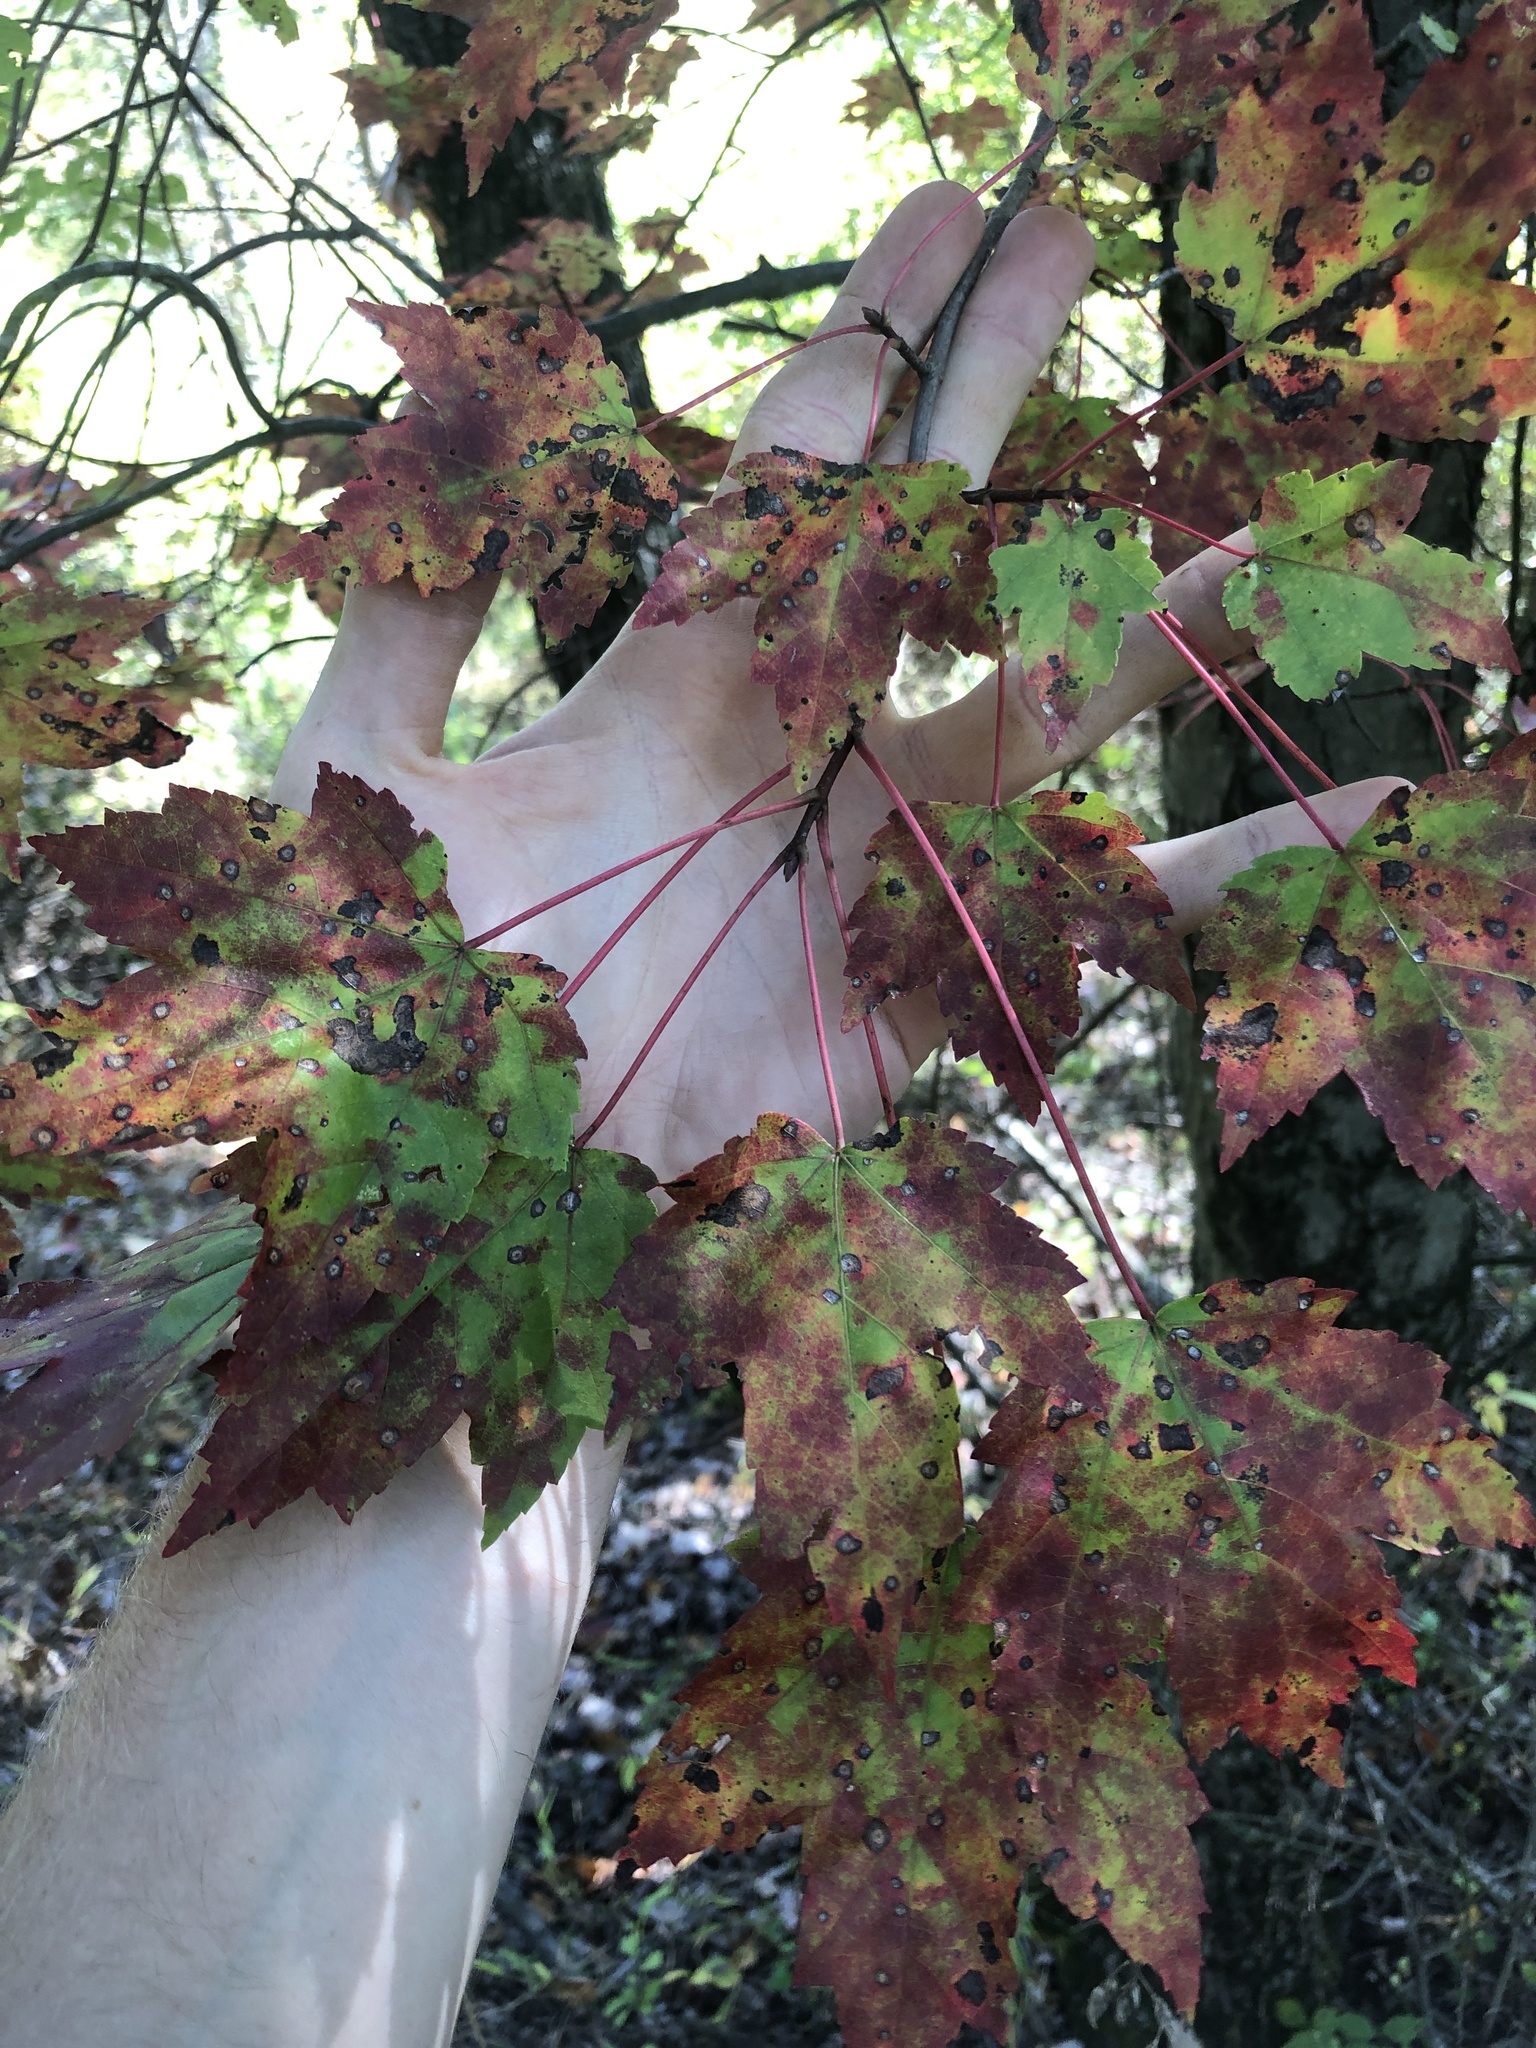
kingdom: Plantae
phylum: Tracheophyta
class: Magnoliopsida
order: Sapindales
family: Sapindaceae
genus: Acer
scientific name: Acer rubrum
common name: Red maple
